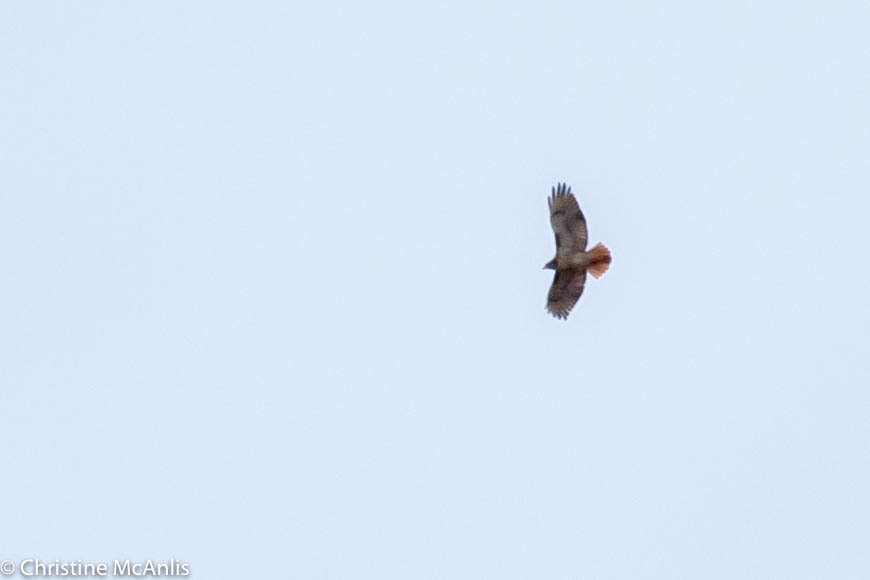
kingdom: Animalia
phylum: Chordata
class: Aves
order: Accipitriformes
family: Accipitridae
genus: Buteo
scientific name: Buteo jamaicensis
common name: Red-tailed hawk
